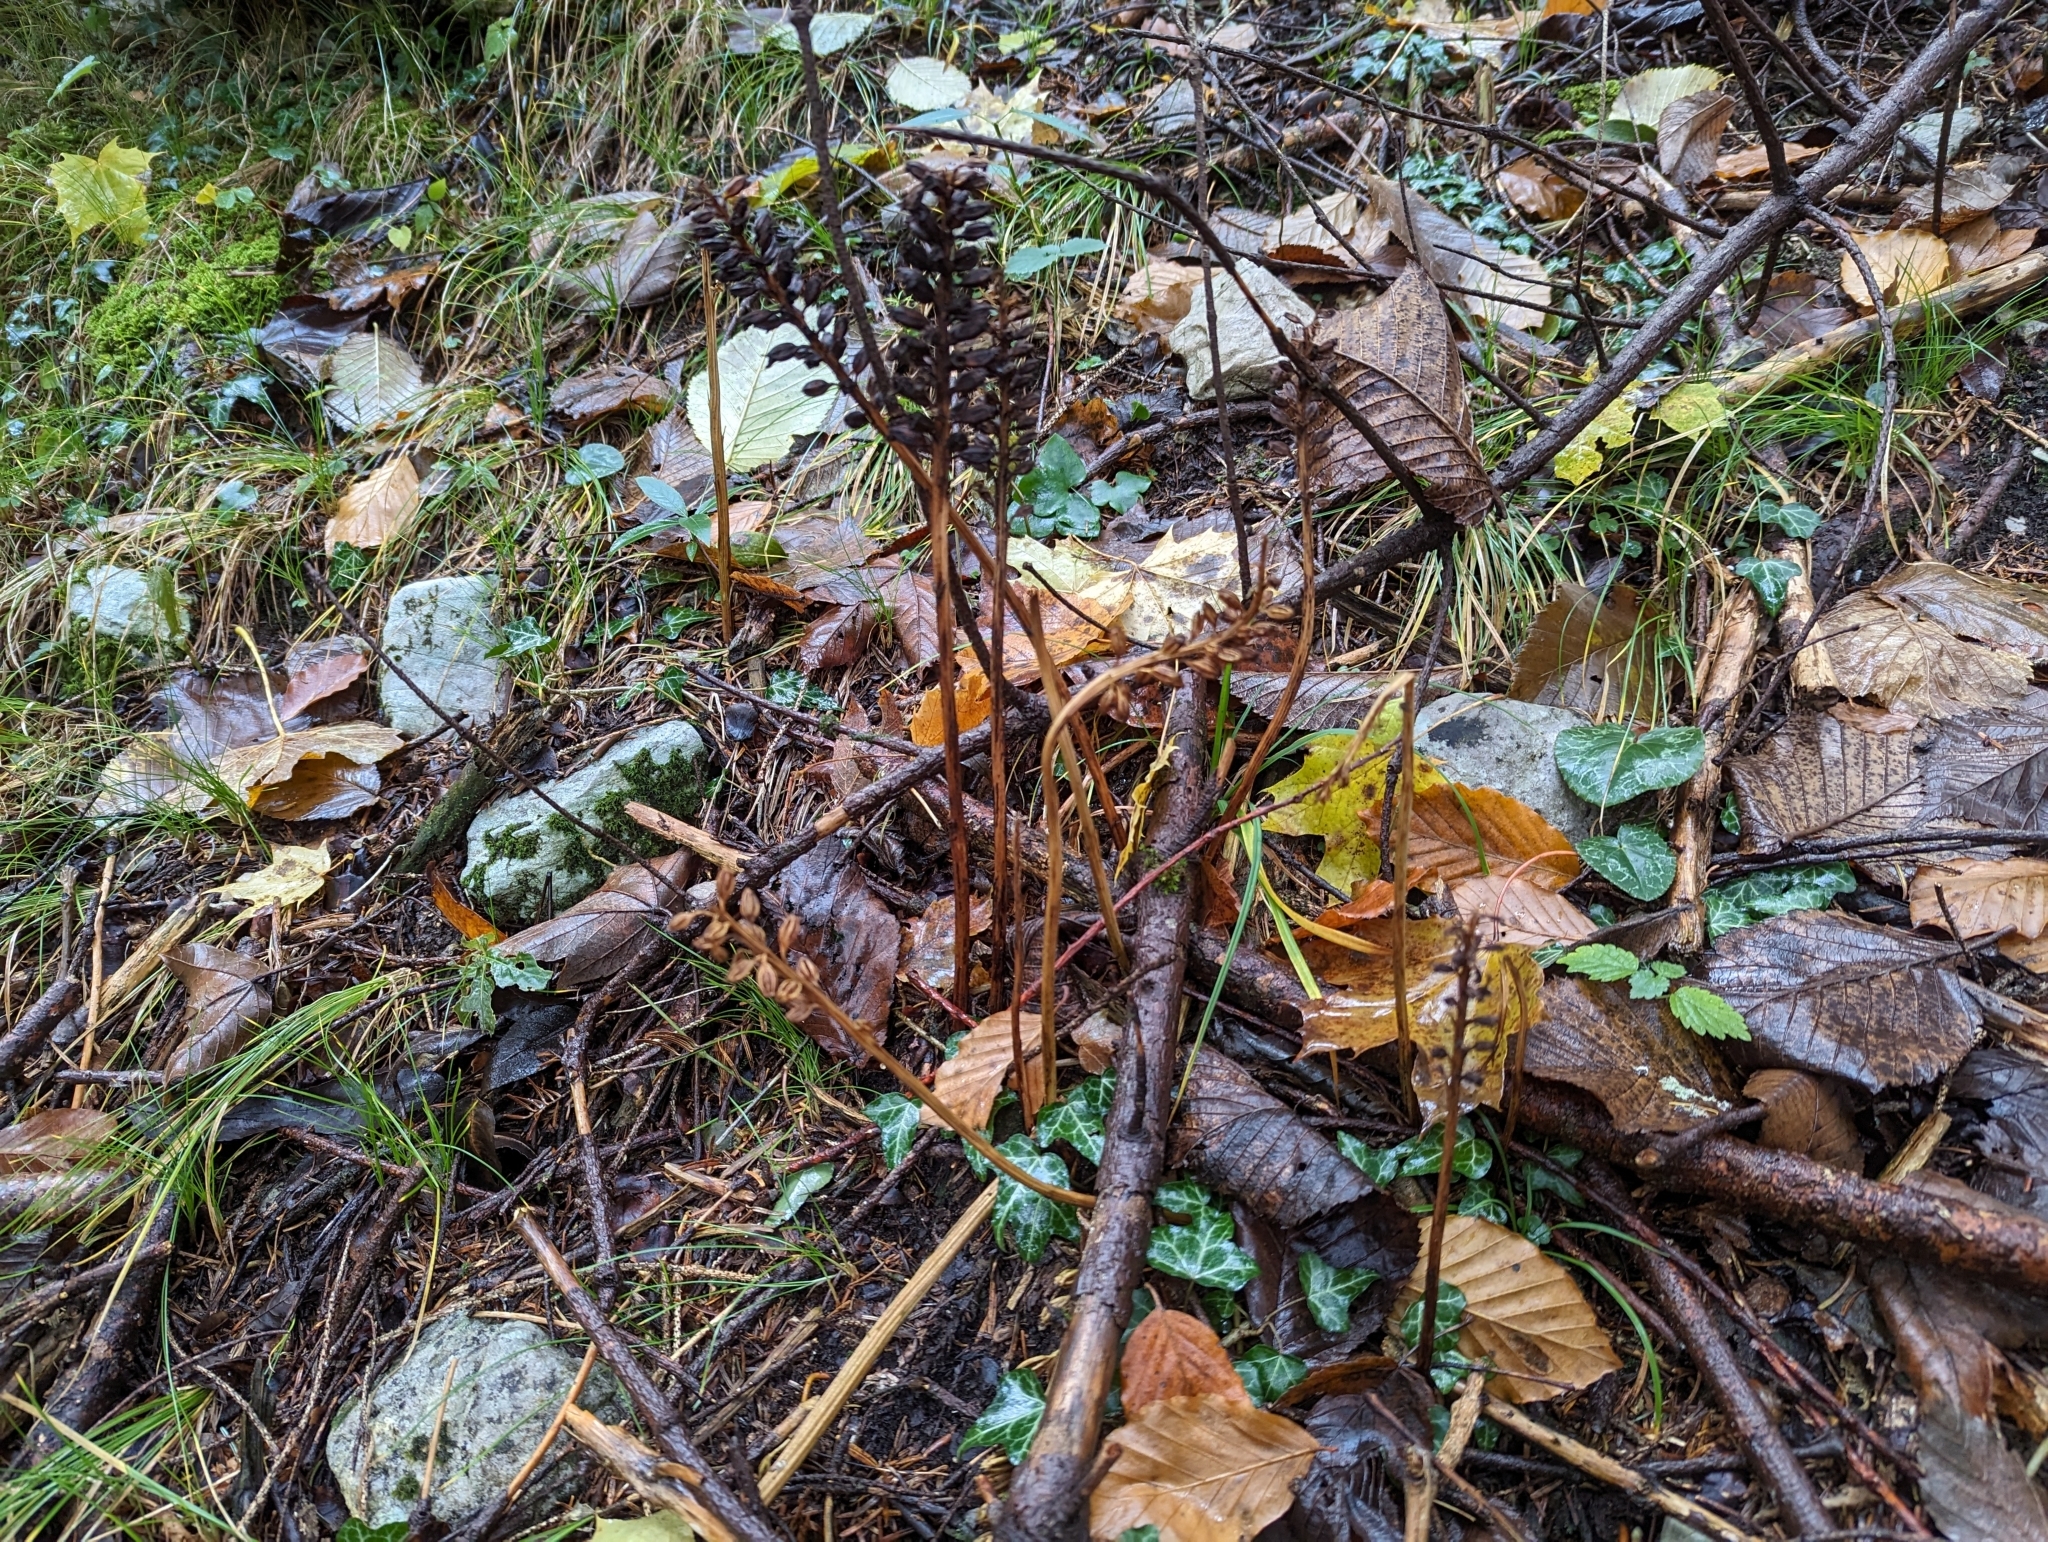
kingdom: Plantae
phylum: Tracheophyta
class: Liliopsida
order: Asparagales
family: Orchidaceae
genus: Neottia
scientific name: Neottia nidus-avis
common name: Bird's-nest orchid
